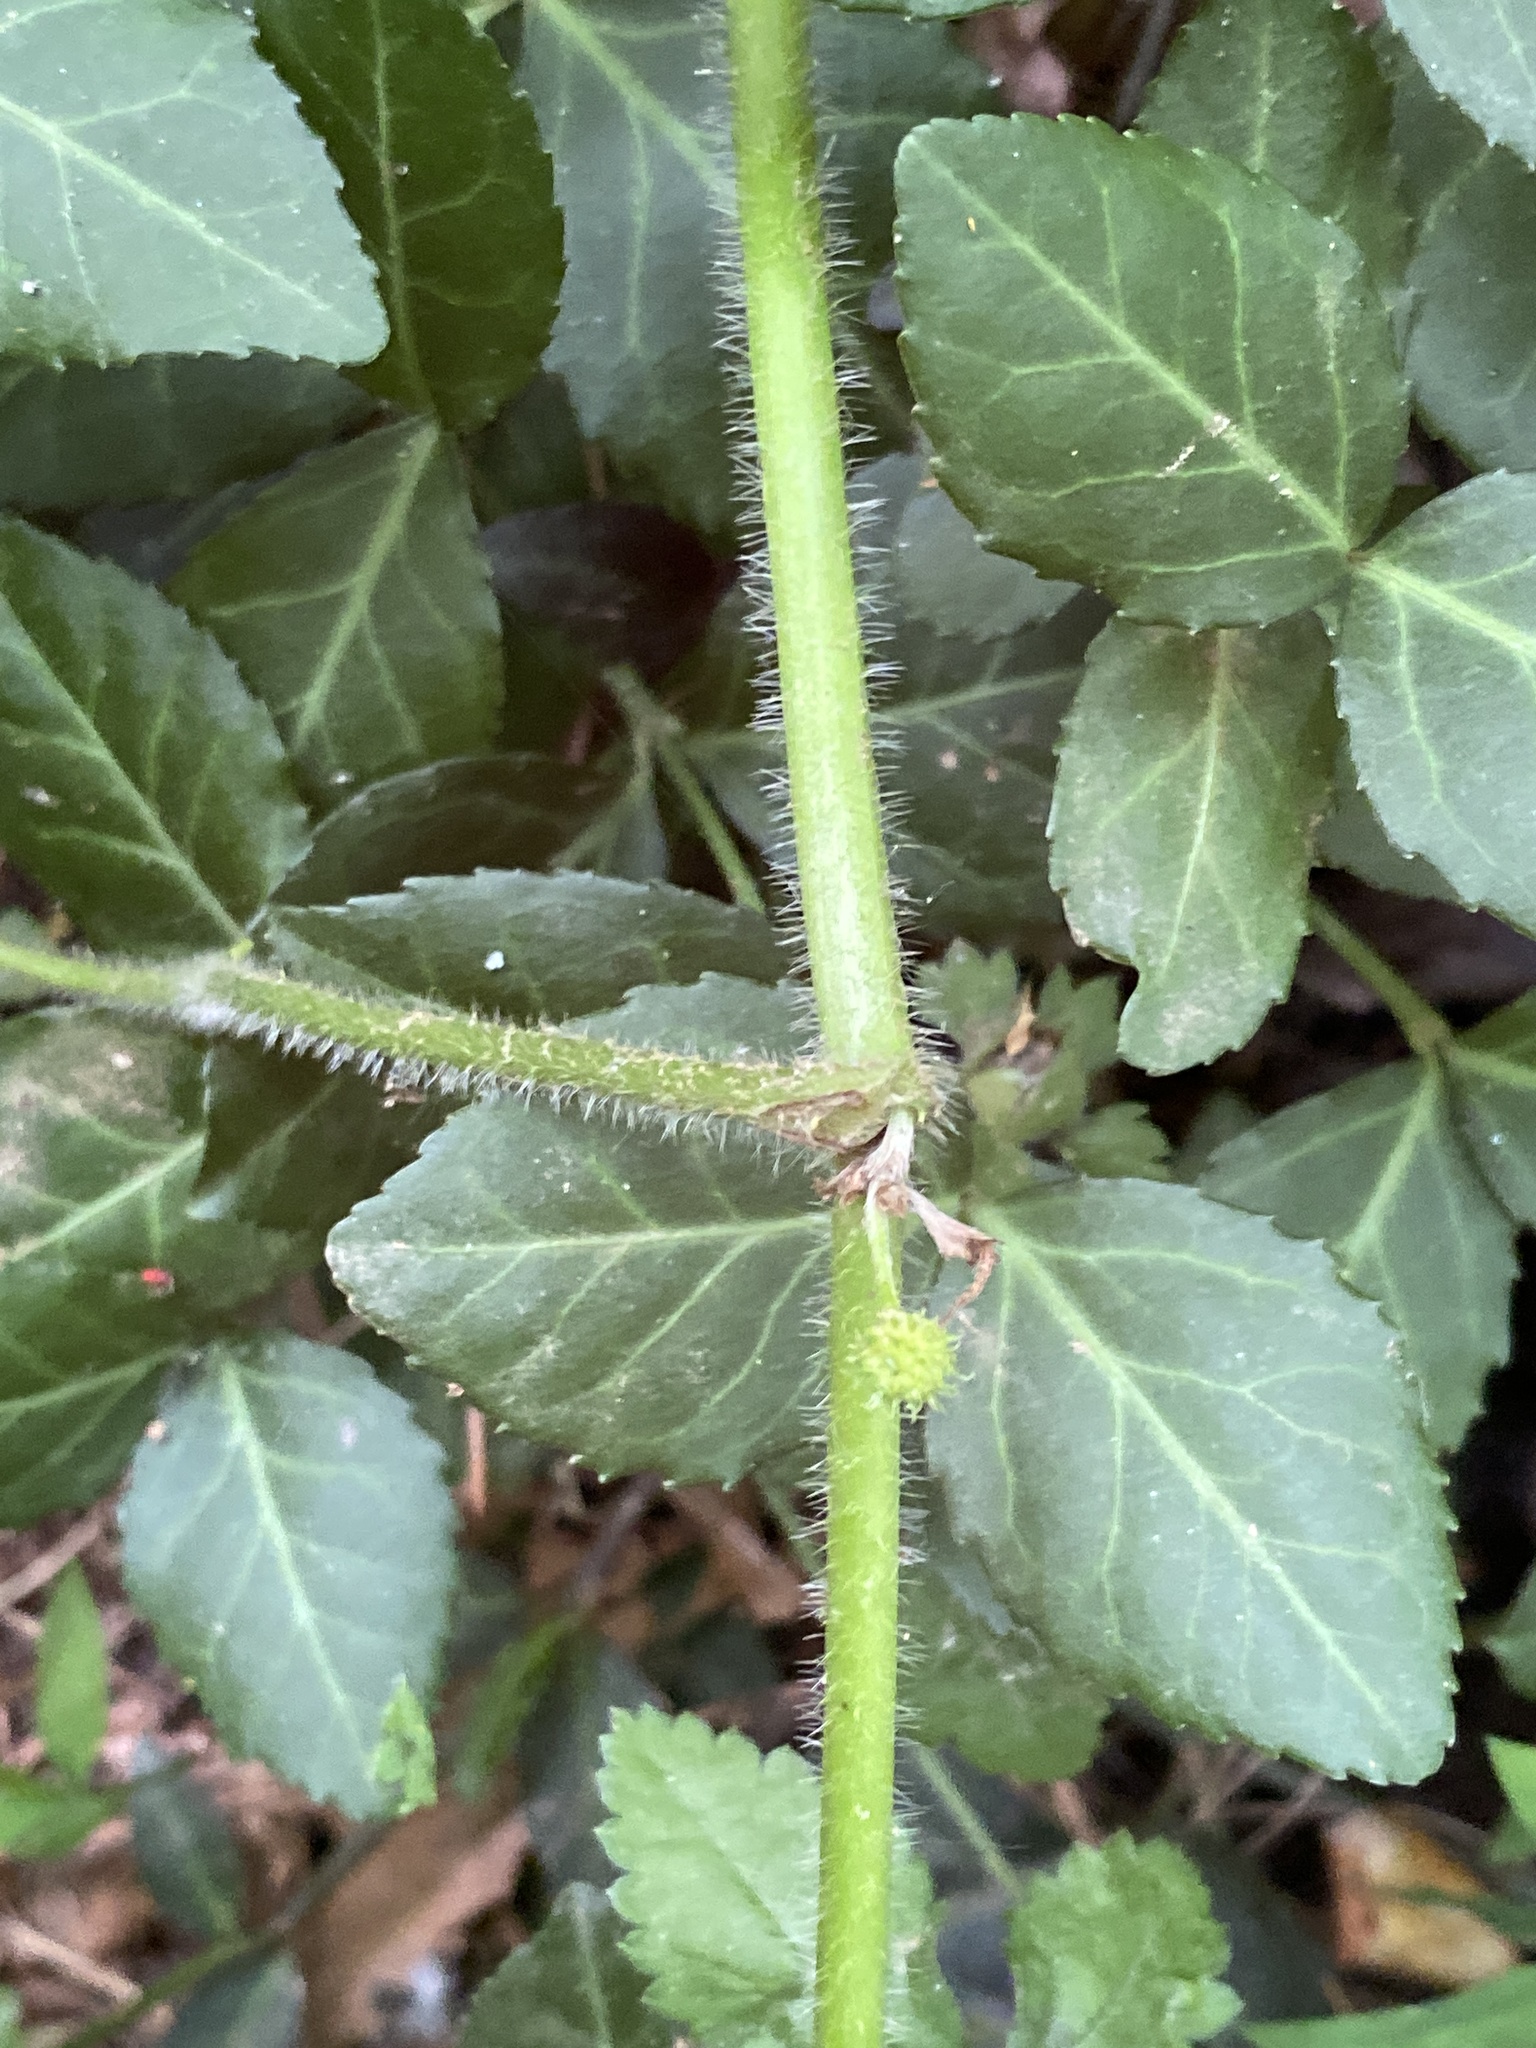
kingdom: Plantae
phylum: Tracheophyta
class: Magnoliopsida
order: Ranunculales
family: Ranunculaceae
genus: Ranunculus
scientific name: Ranunculus recurvatus
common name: Blisterwort
